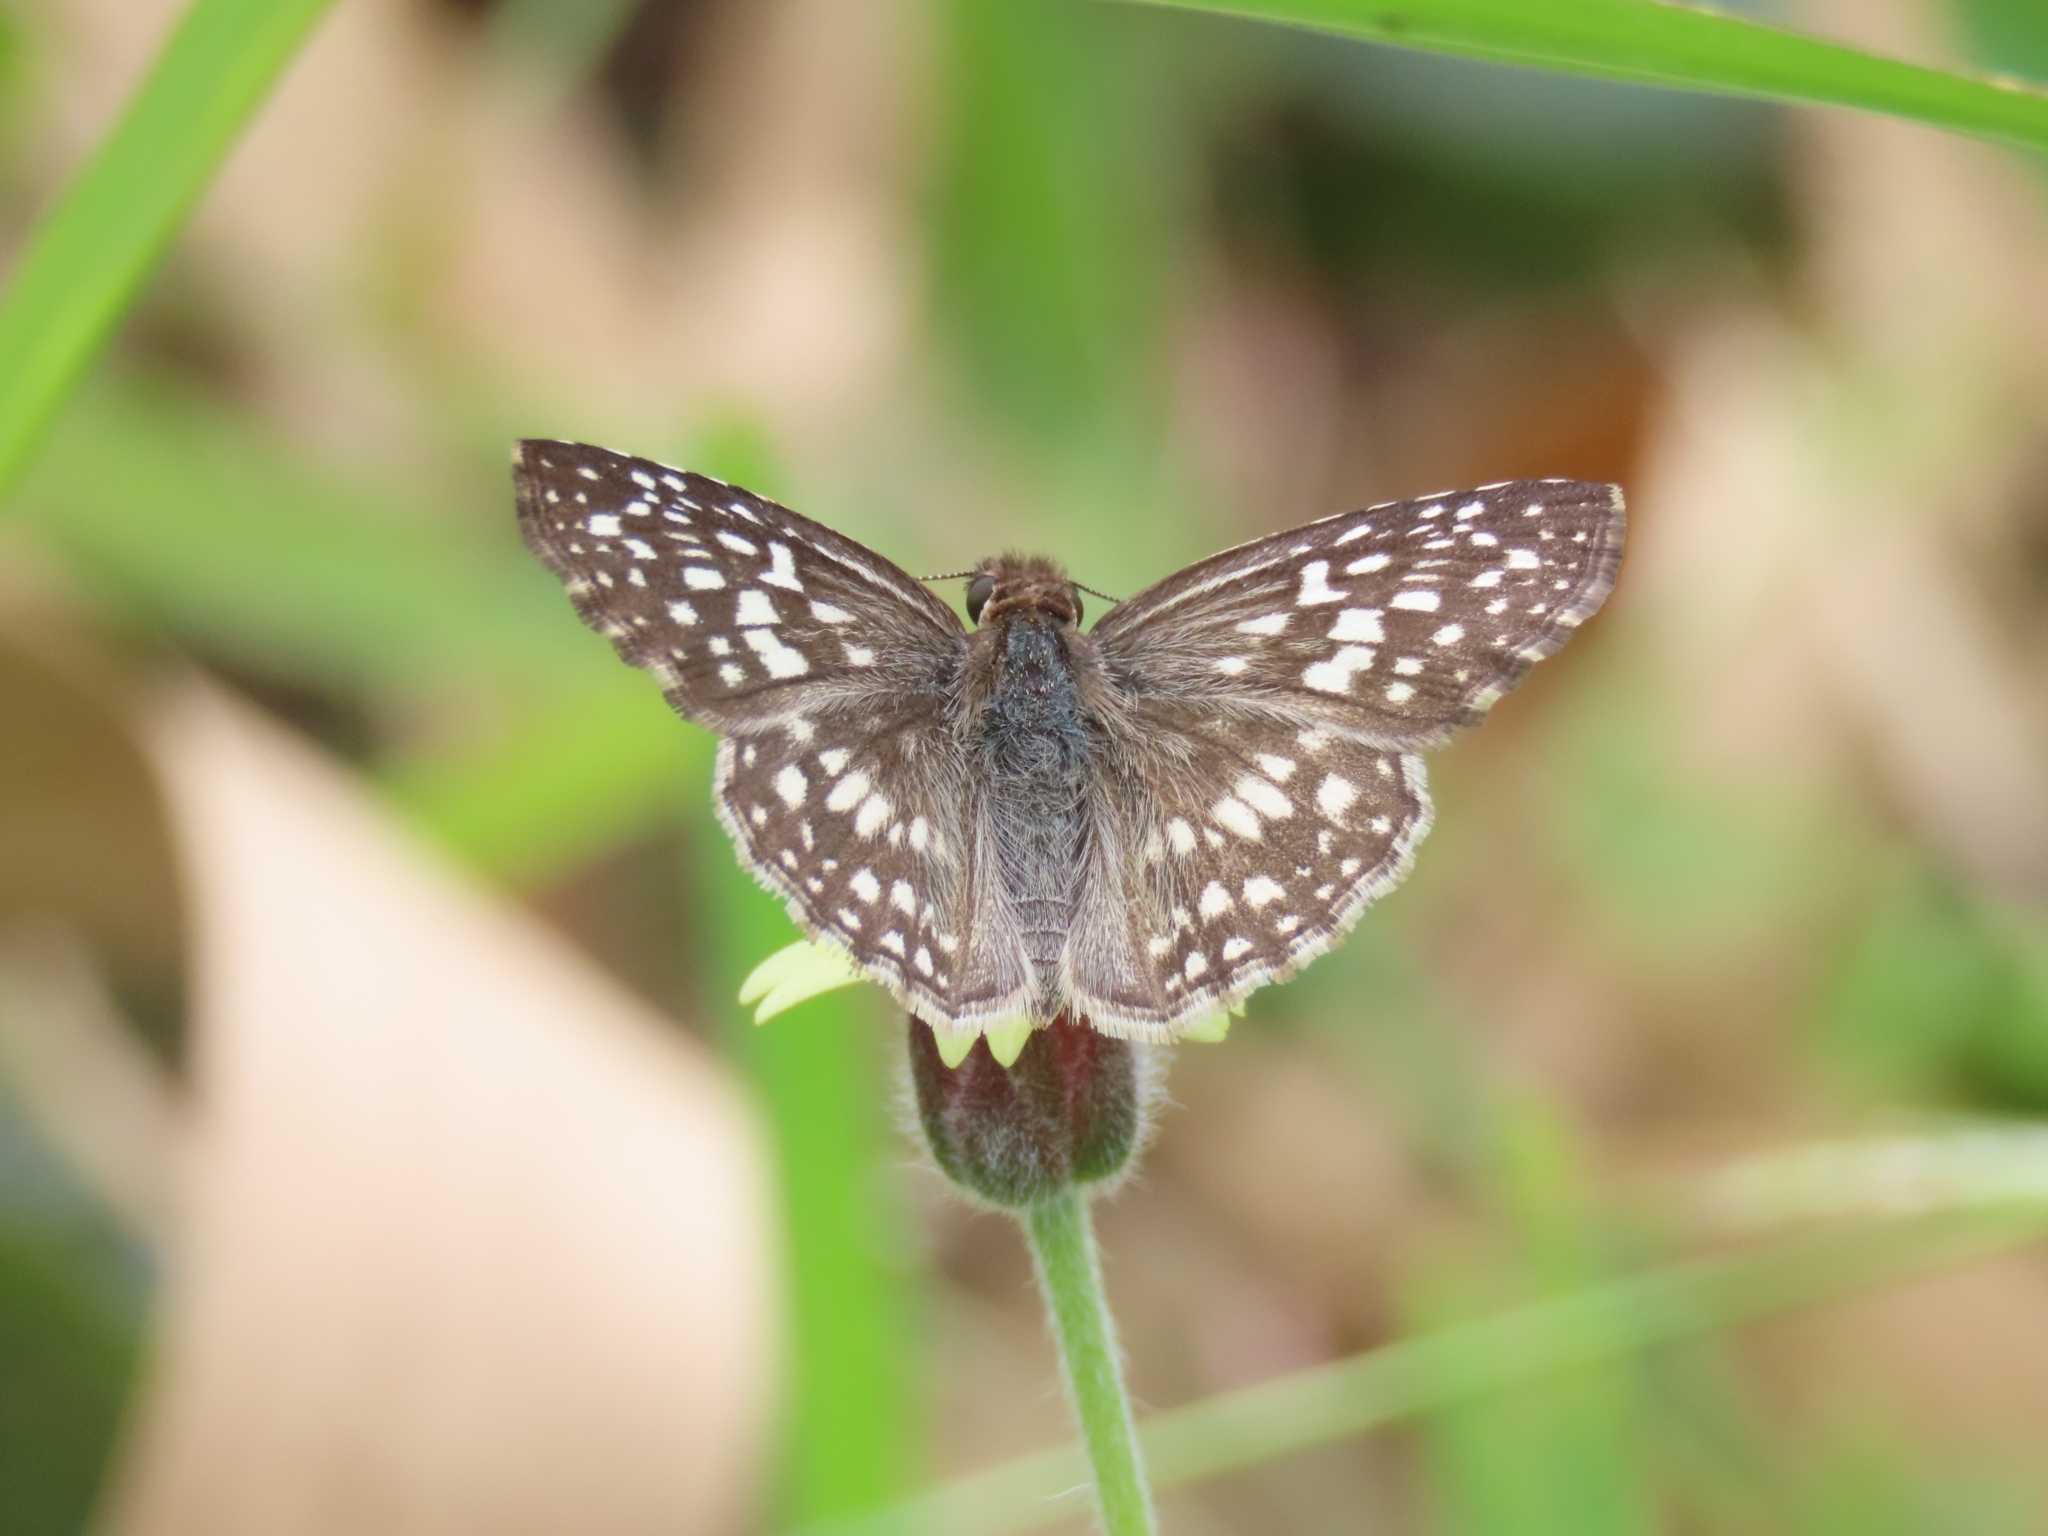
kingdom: Animalia
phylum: Arthropoda
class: Insecta
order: Lepidoptera
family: Hesperiidae
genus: Pyrgus
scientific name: Pyrgus oileus
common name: Tropical checkered-skipper
